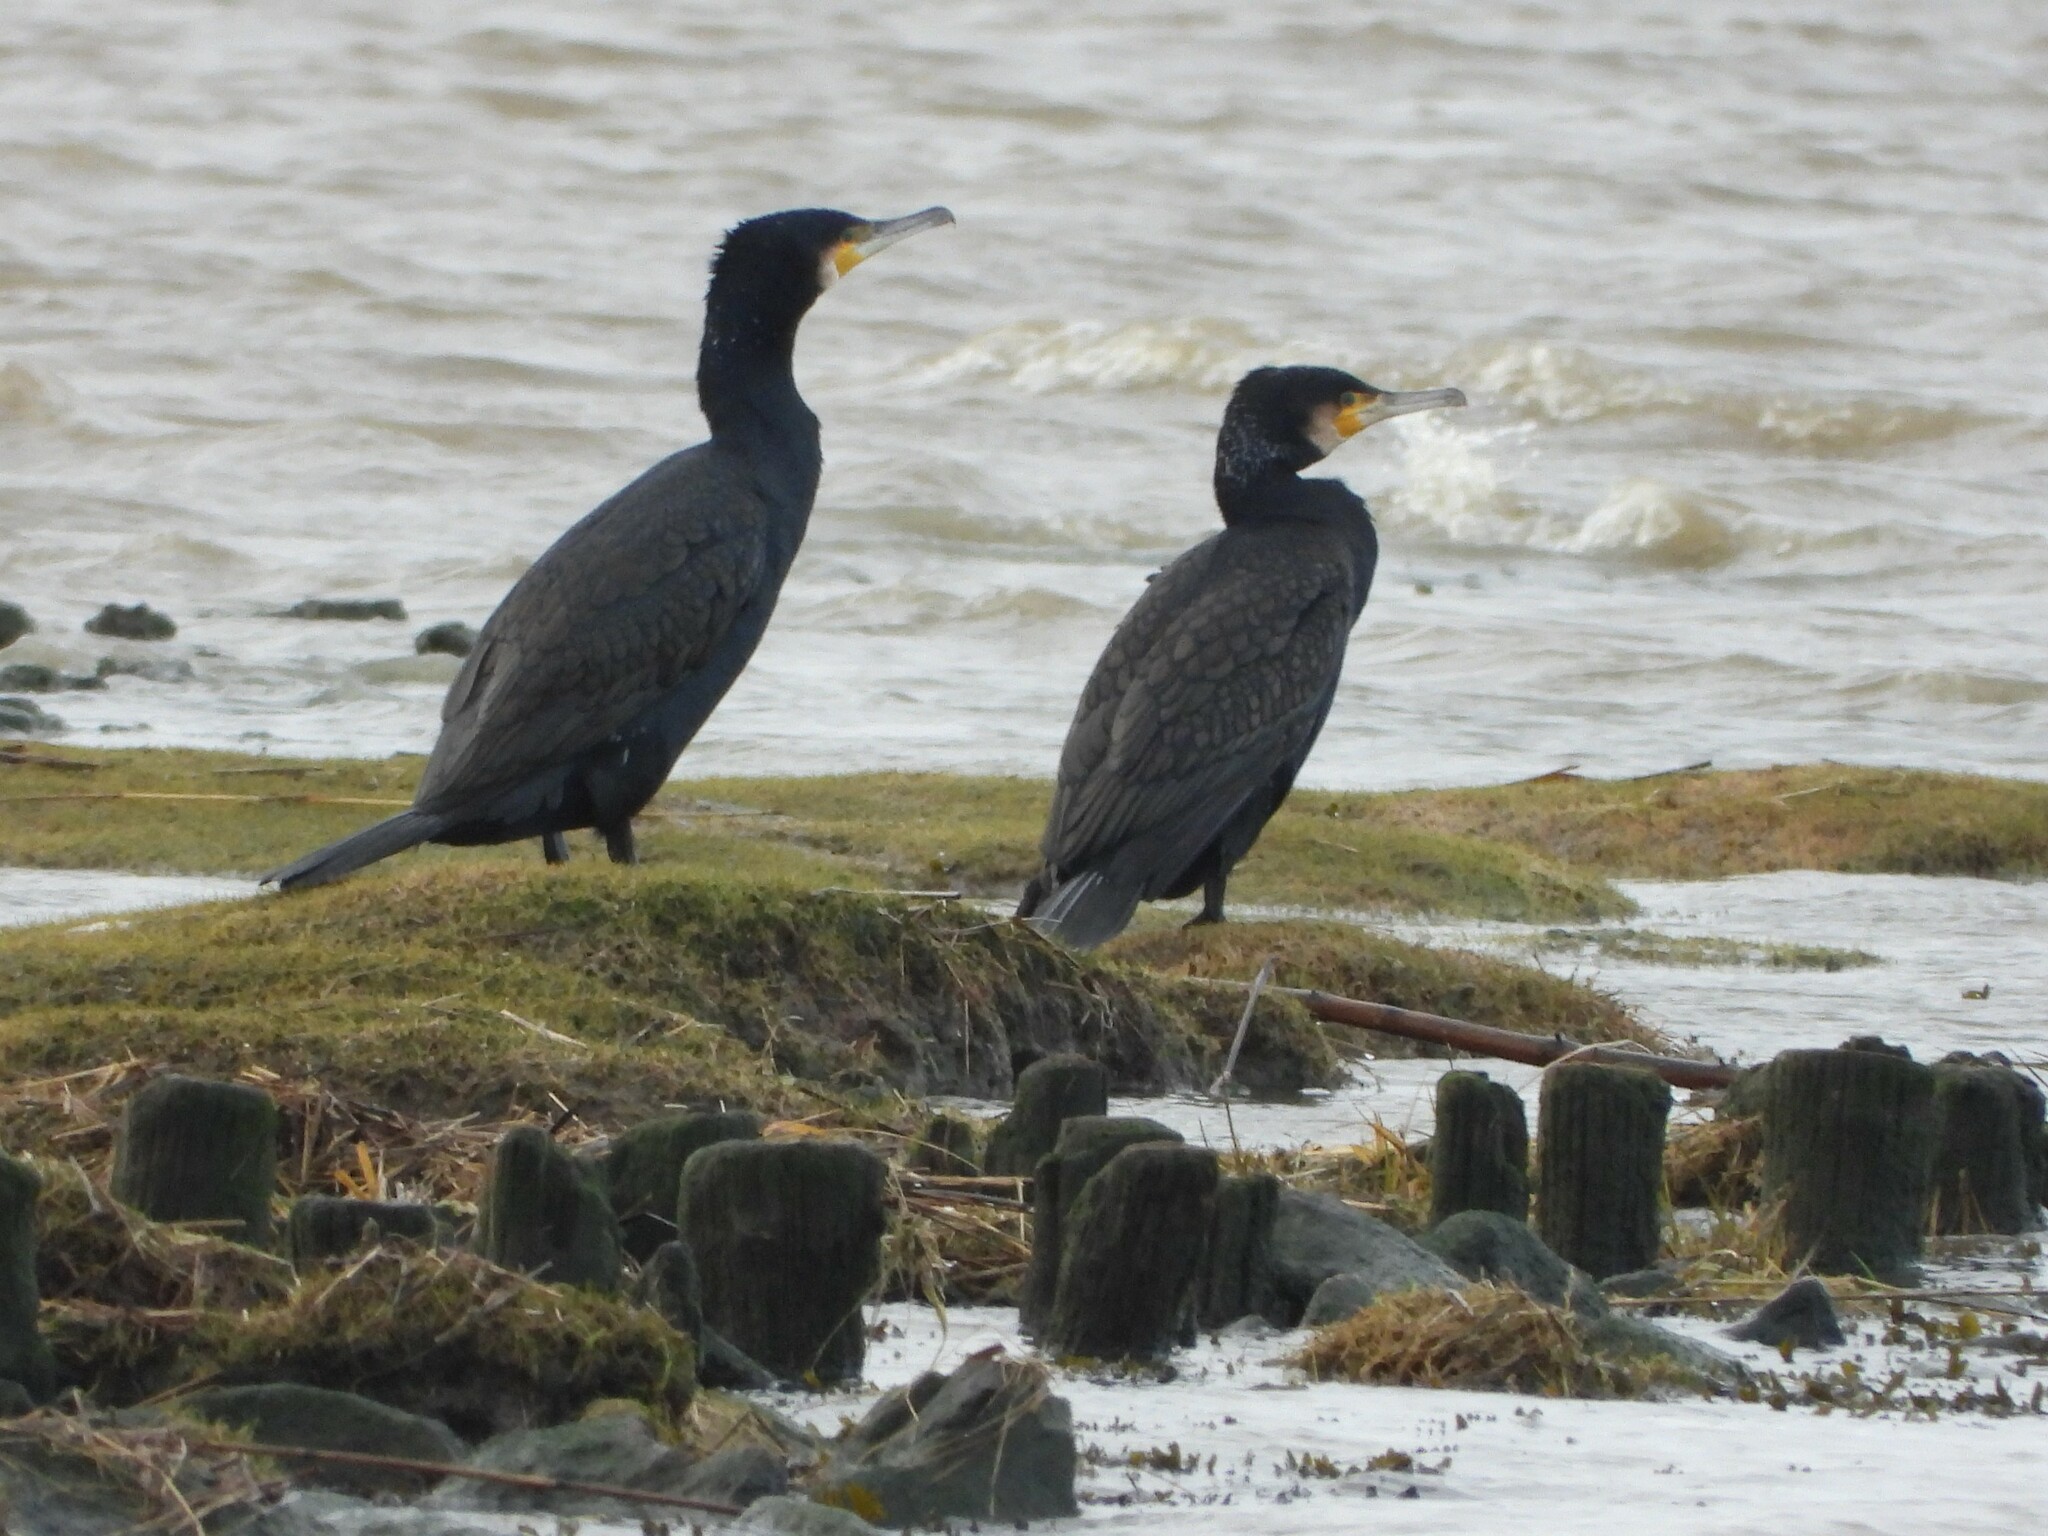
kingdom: Animalia
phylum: Chordata
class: Aves
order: Suliformes
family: Phalacrocoracidae
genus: Phalacrocorax
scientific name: Phalacrocorax carbo
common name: Great cormorant
